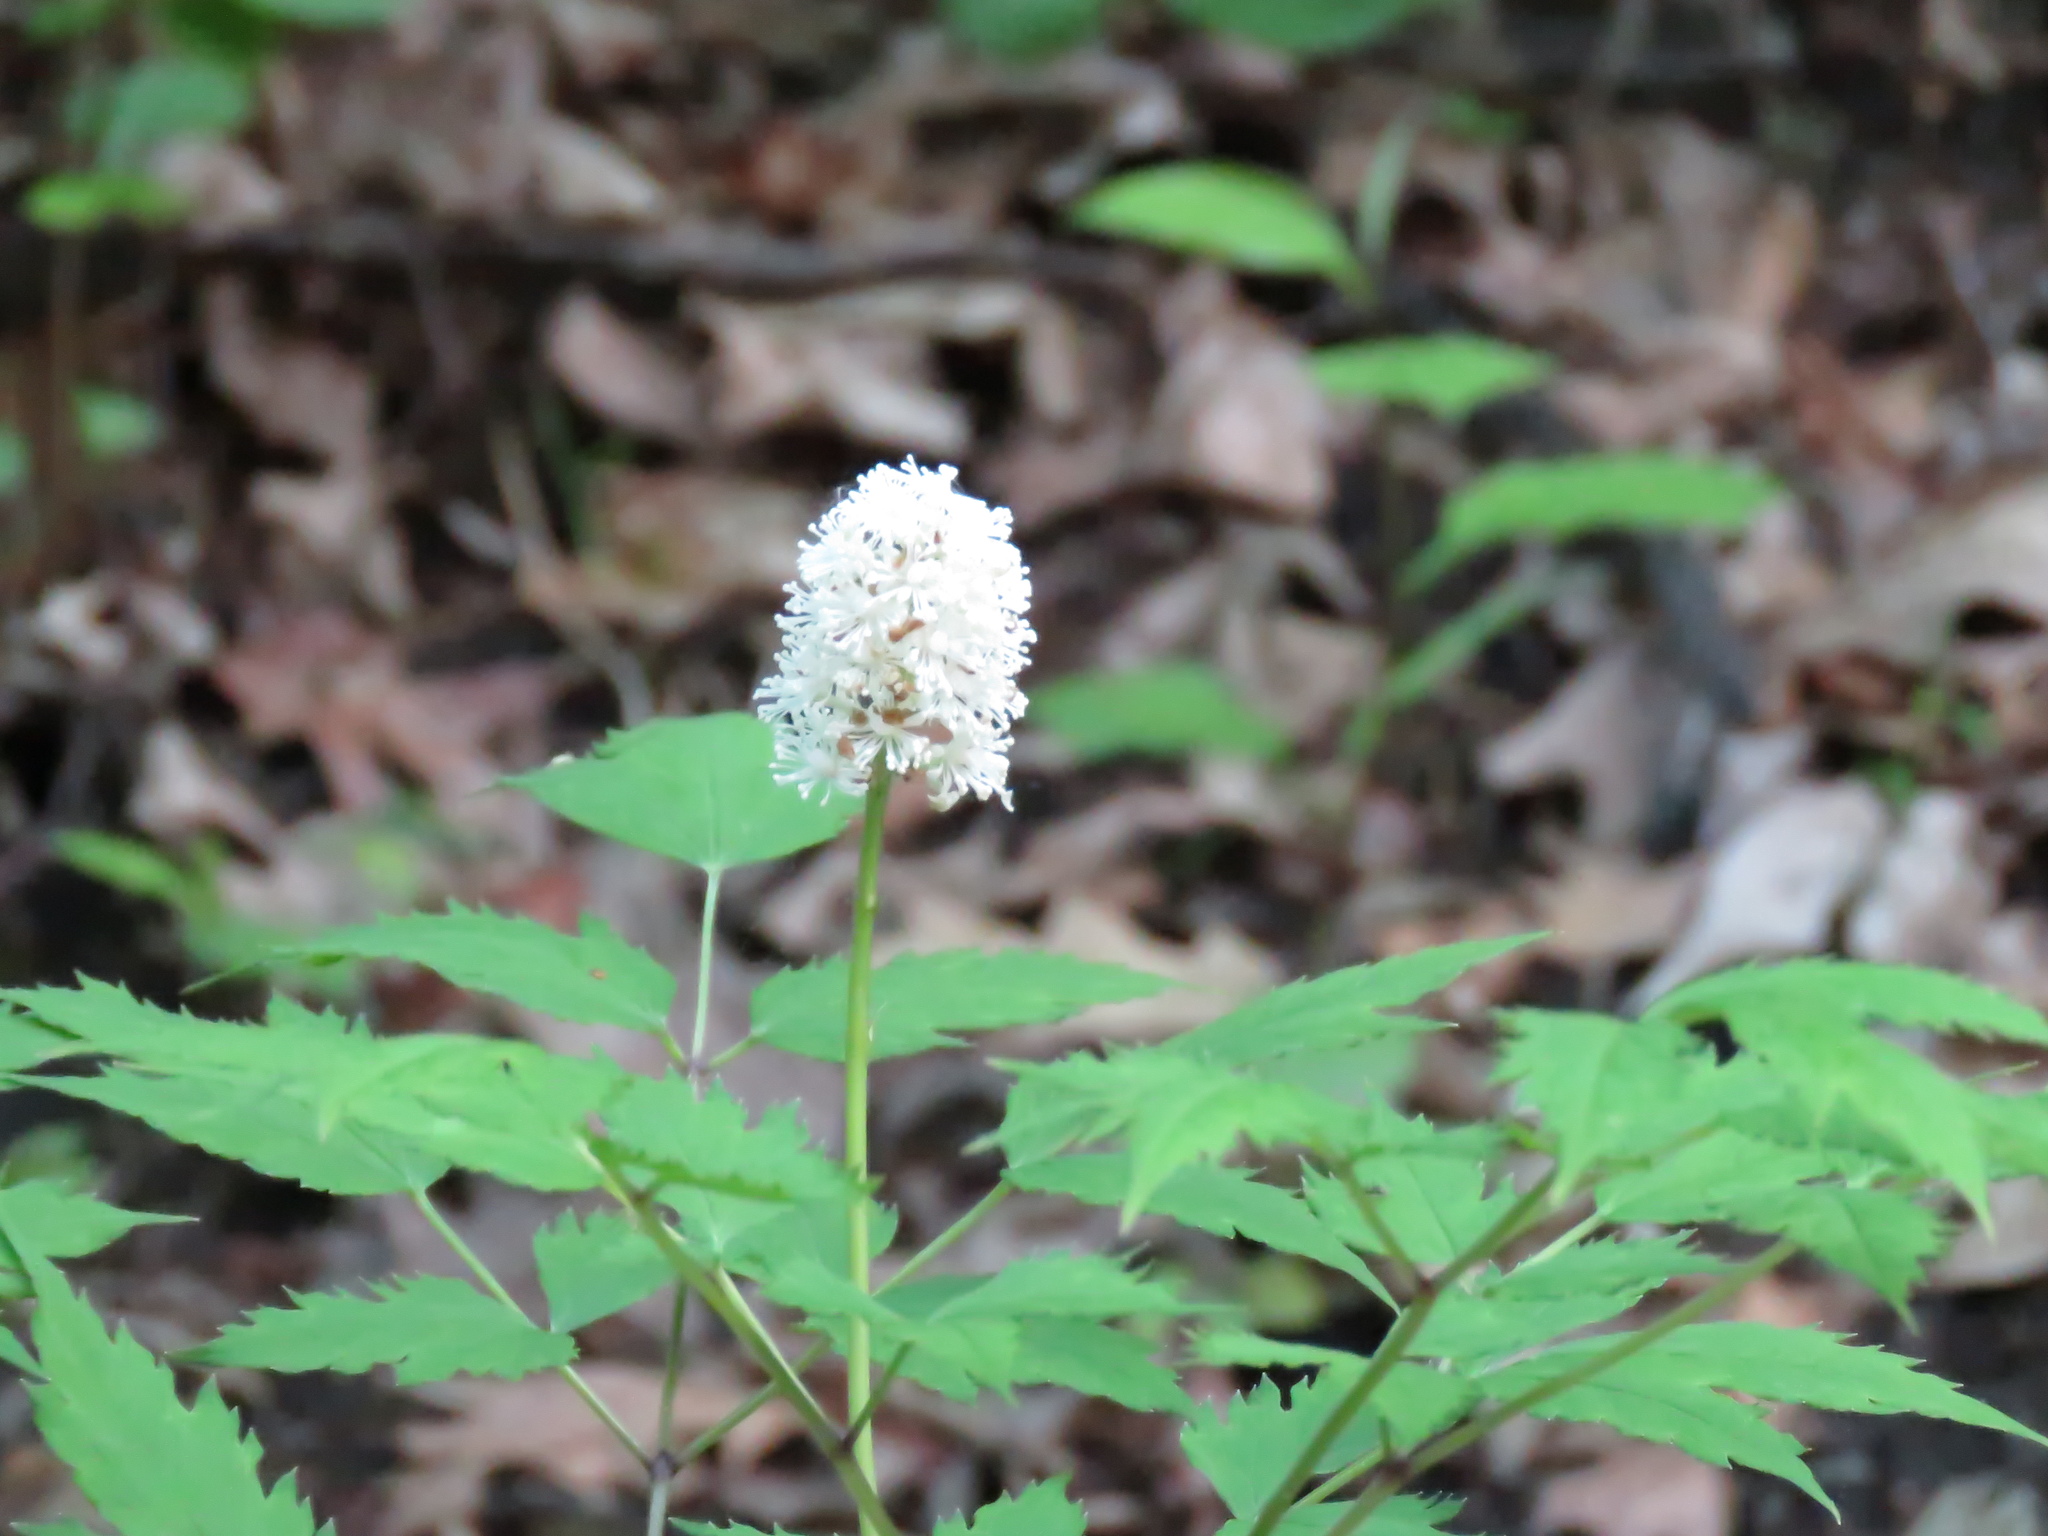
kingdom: Plantae
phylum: Tracheophyta
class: Magnoliopsida
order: Ranunculales
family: Ranunculaceae
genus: Actaea
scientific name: Actaea pachypoda
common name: Doll's-eyes
